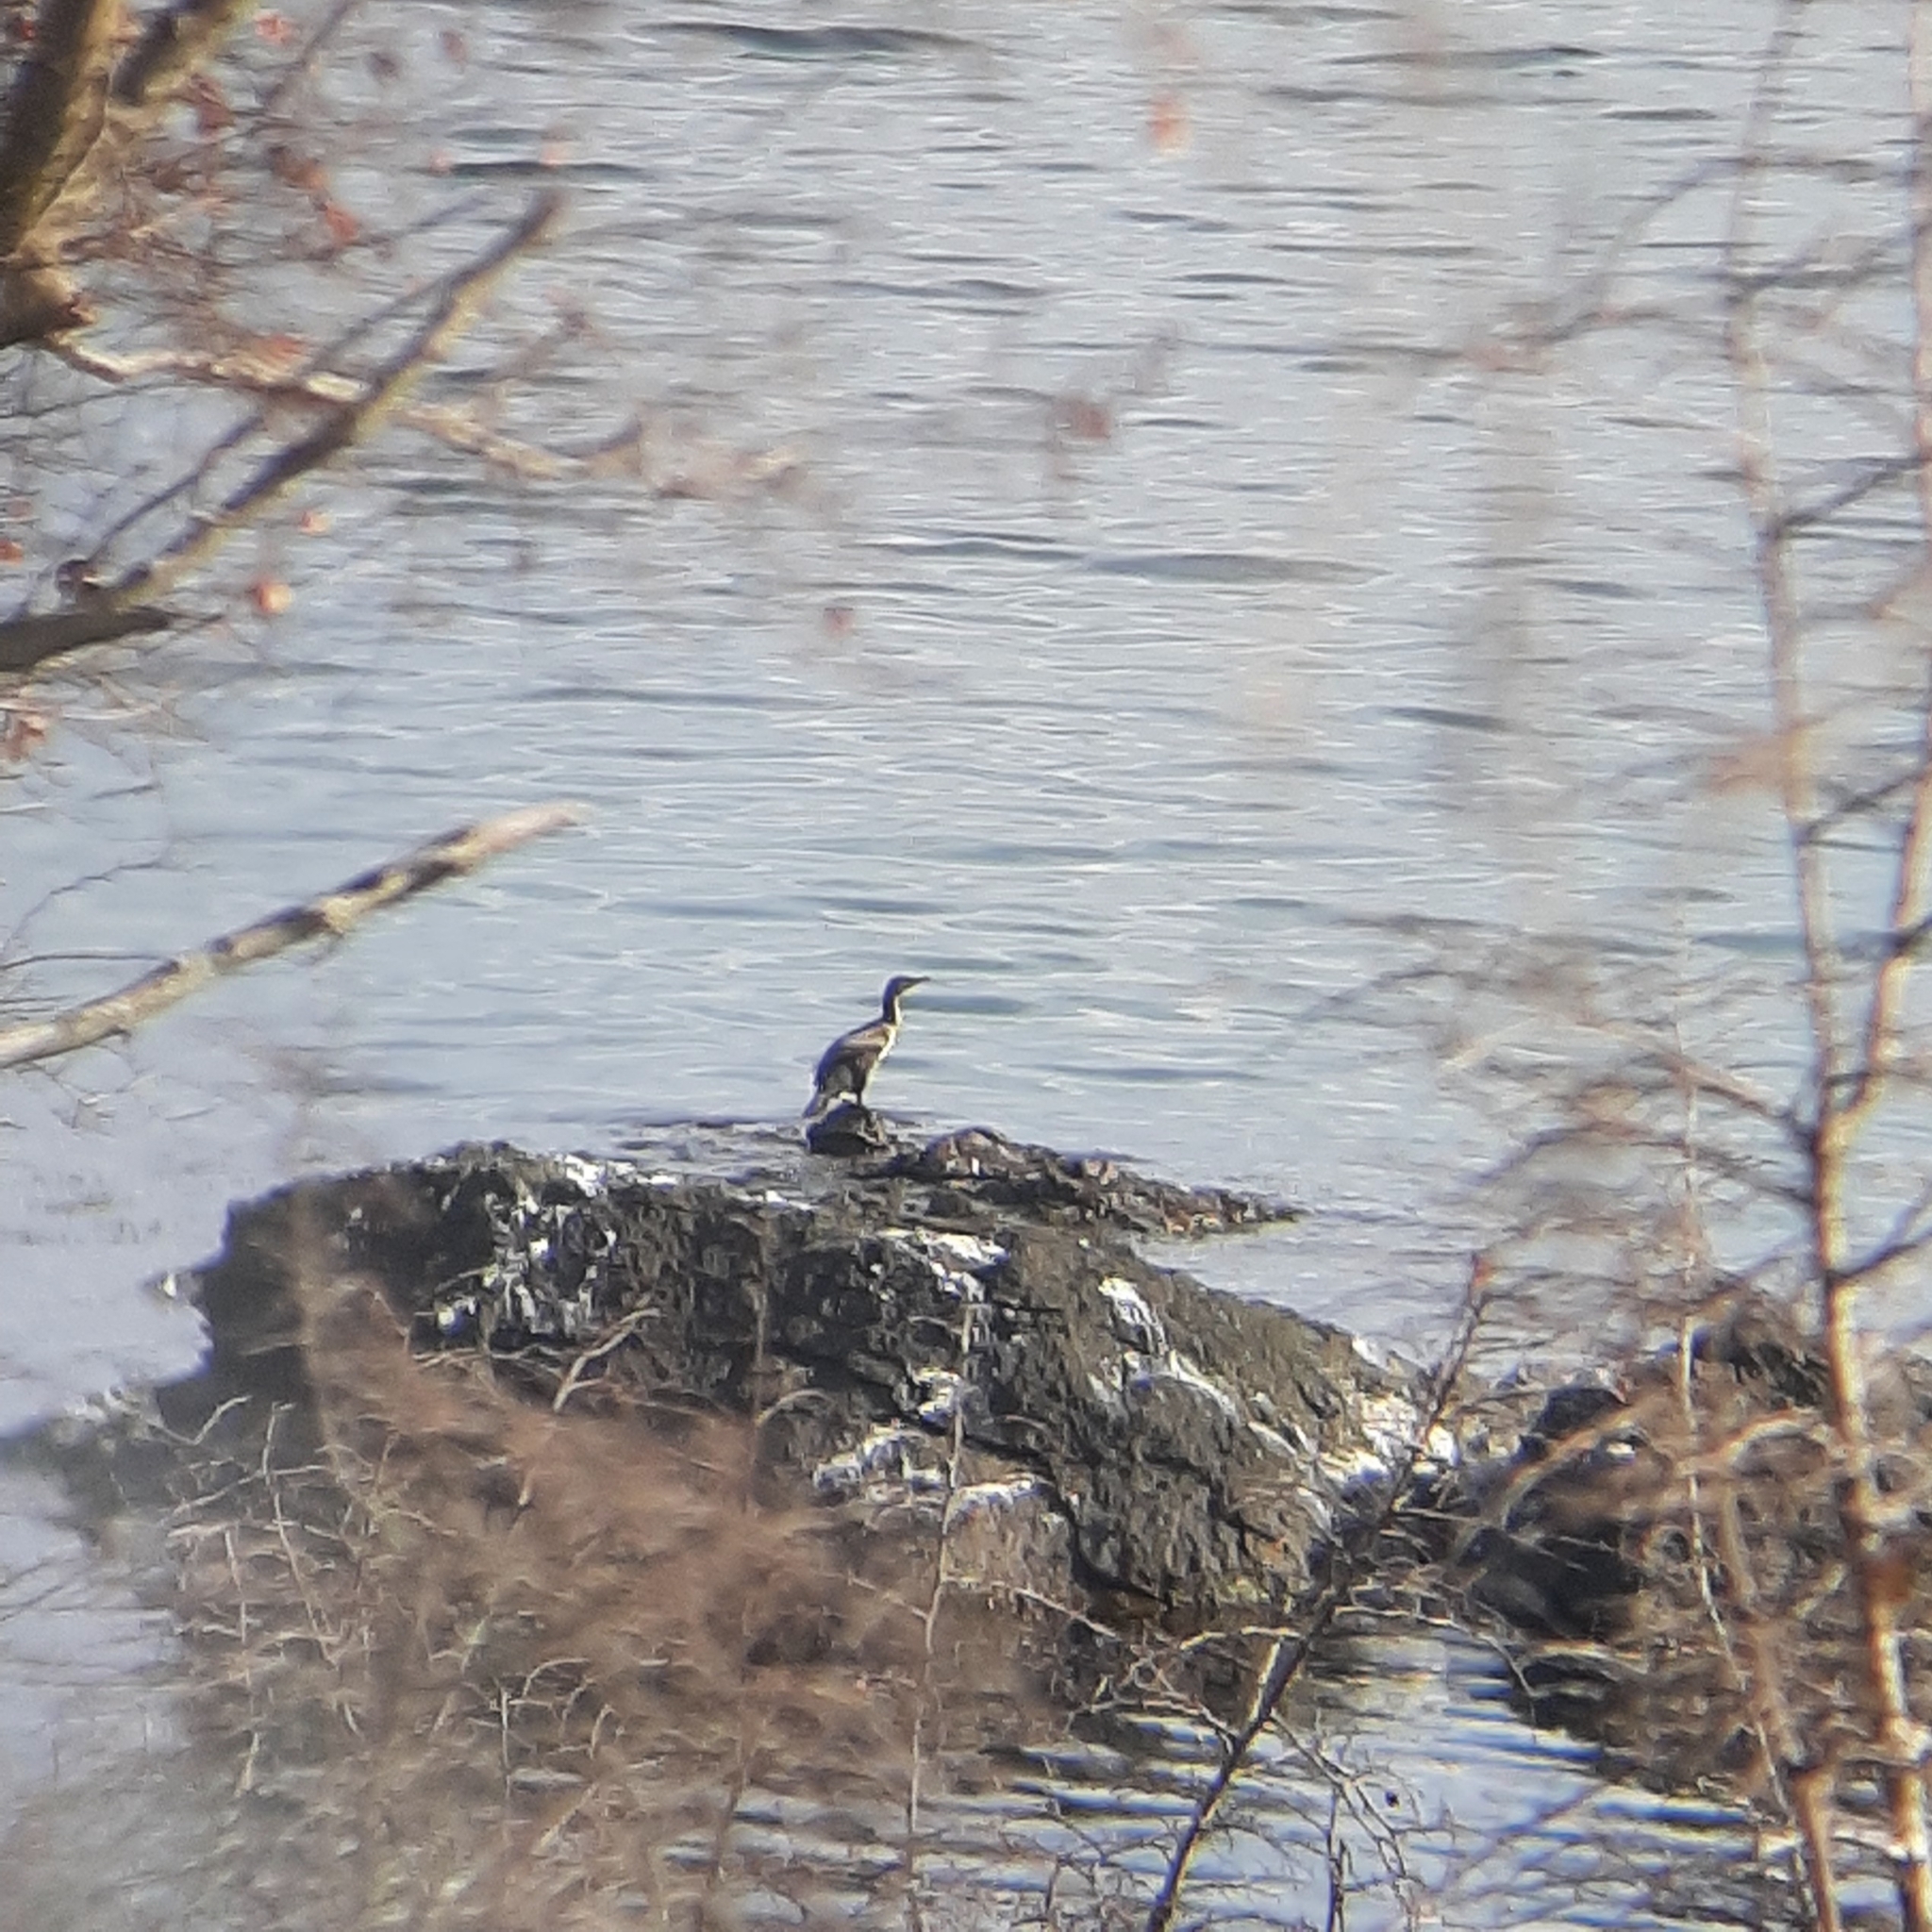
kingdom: Animalia
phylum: Chordata
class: Aves
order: Suliformes
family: Phalacrocoracidae
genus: Phalacrocorax
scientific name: Phalacrocorax carbo
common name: Great cormorant
